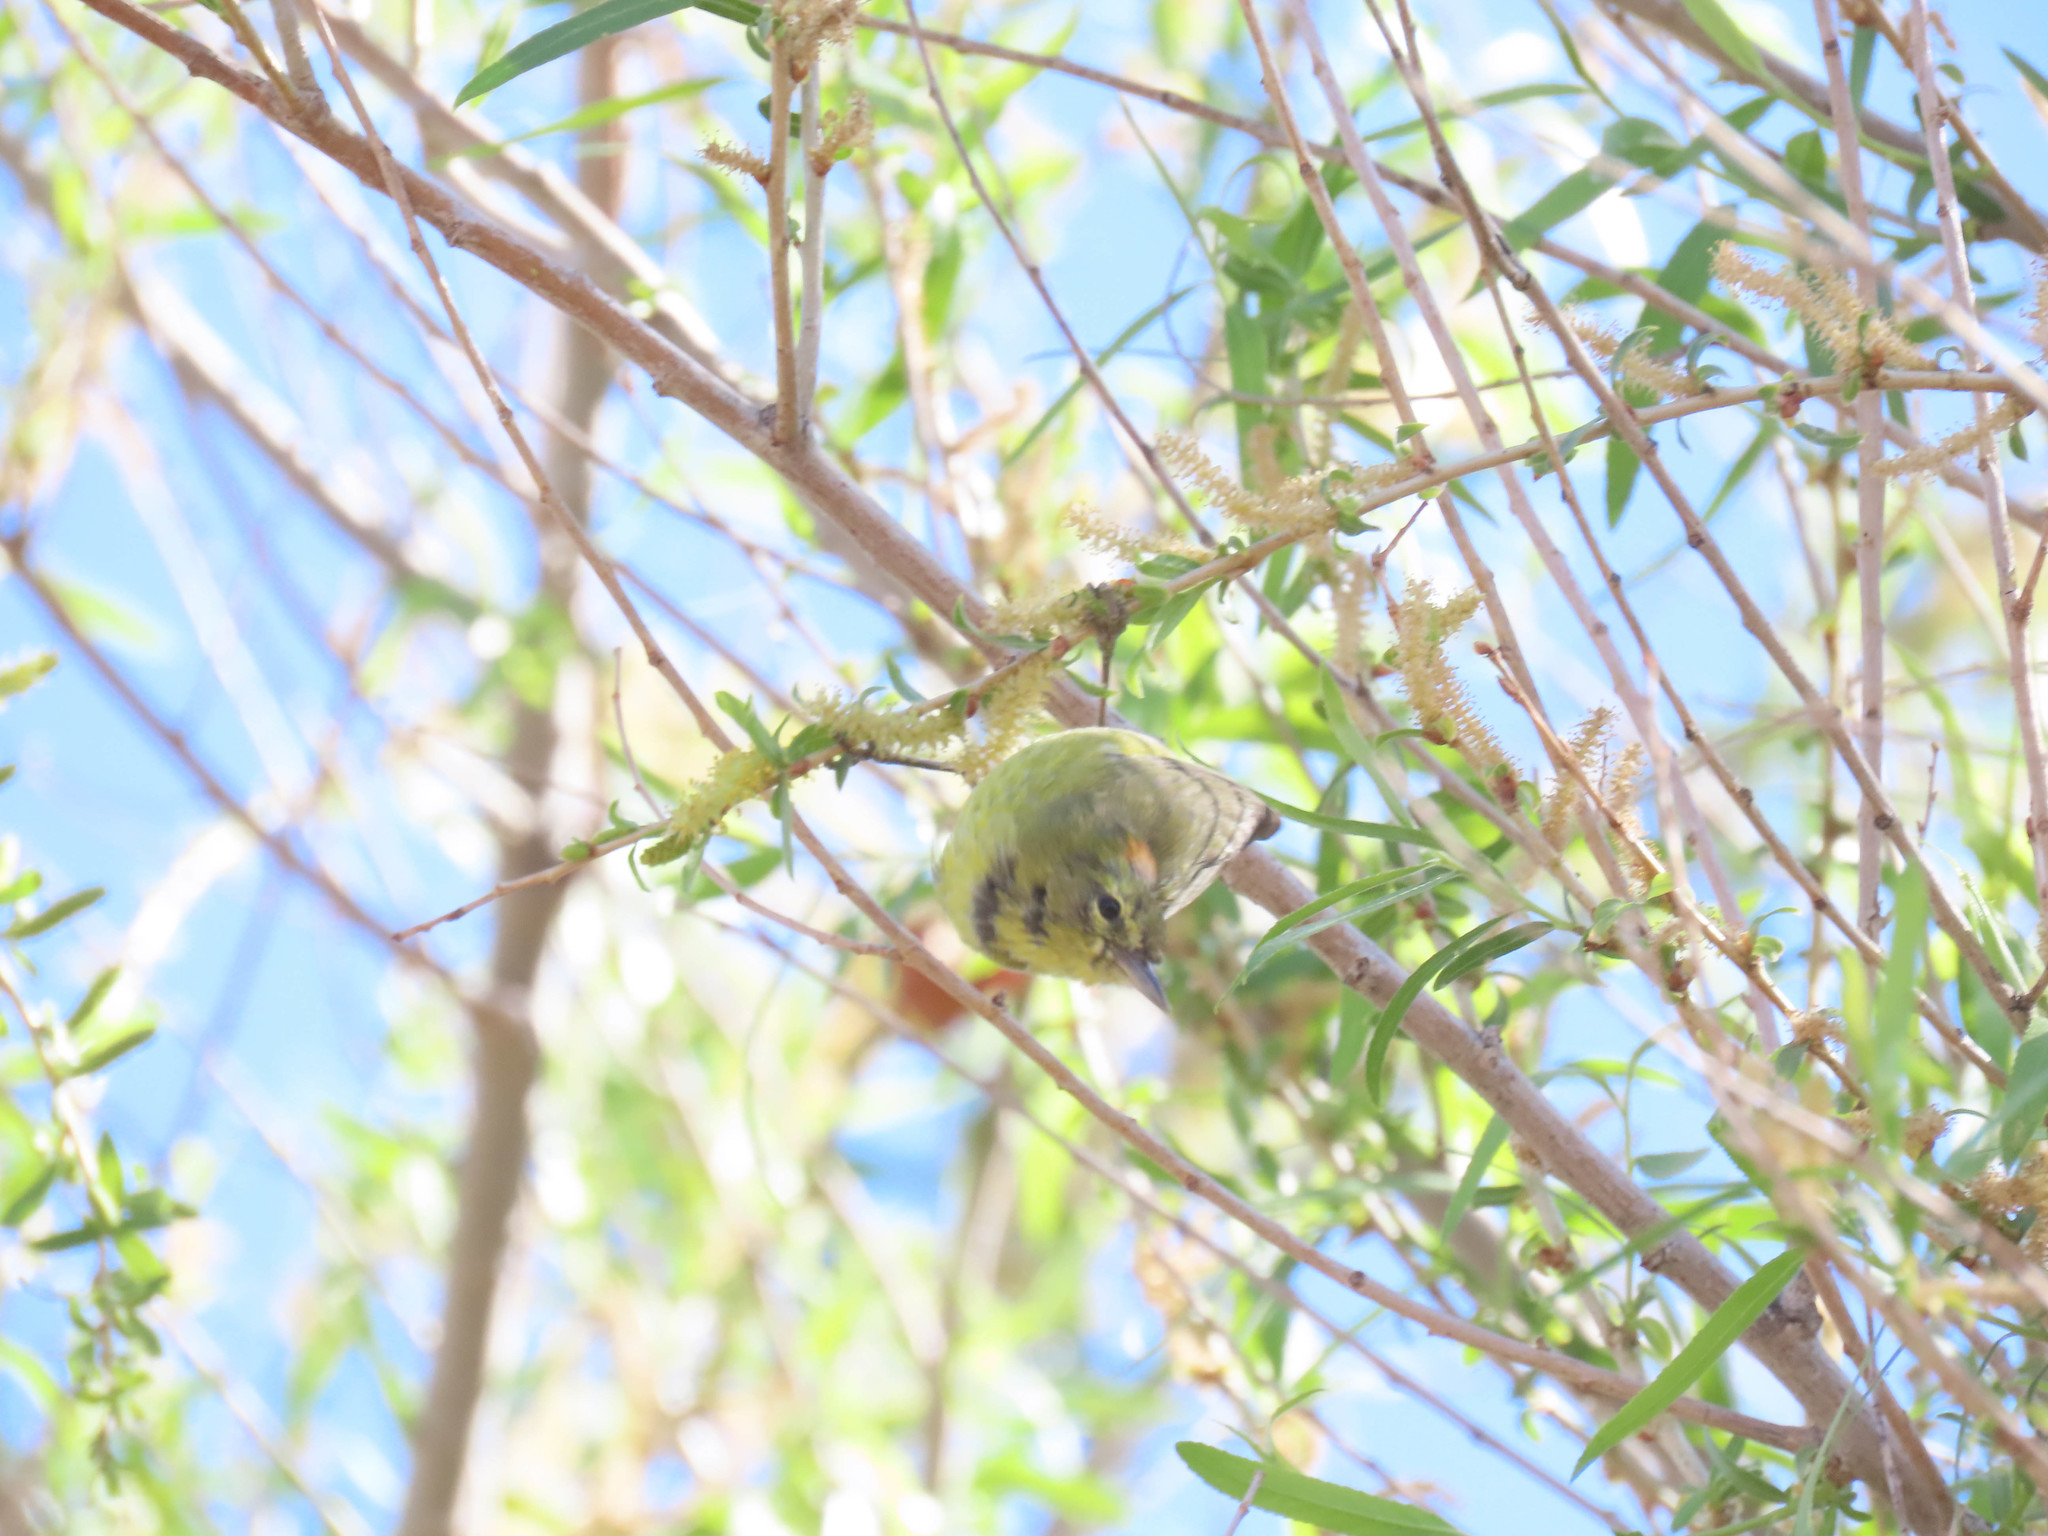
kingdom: Animalia
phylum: Chordata
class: Aves
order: Passeriformes
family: Parulidae
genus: Leiothlypis
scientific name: Leiothlypis celata
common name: Orange-crowned warbler
